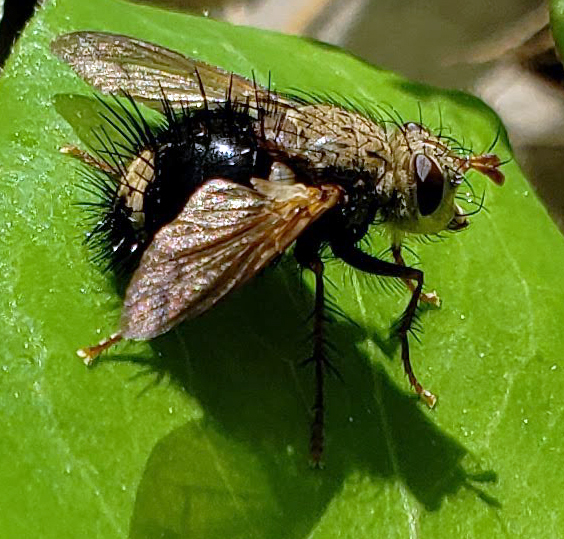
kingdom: Animalia
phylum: Arthropoda
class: Insecta
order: Diptera
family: Tachinidae
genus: Epalpus
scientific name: Epalpus signifer
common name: Early tachinid fly
